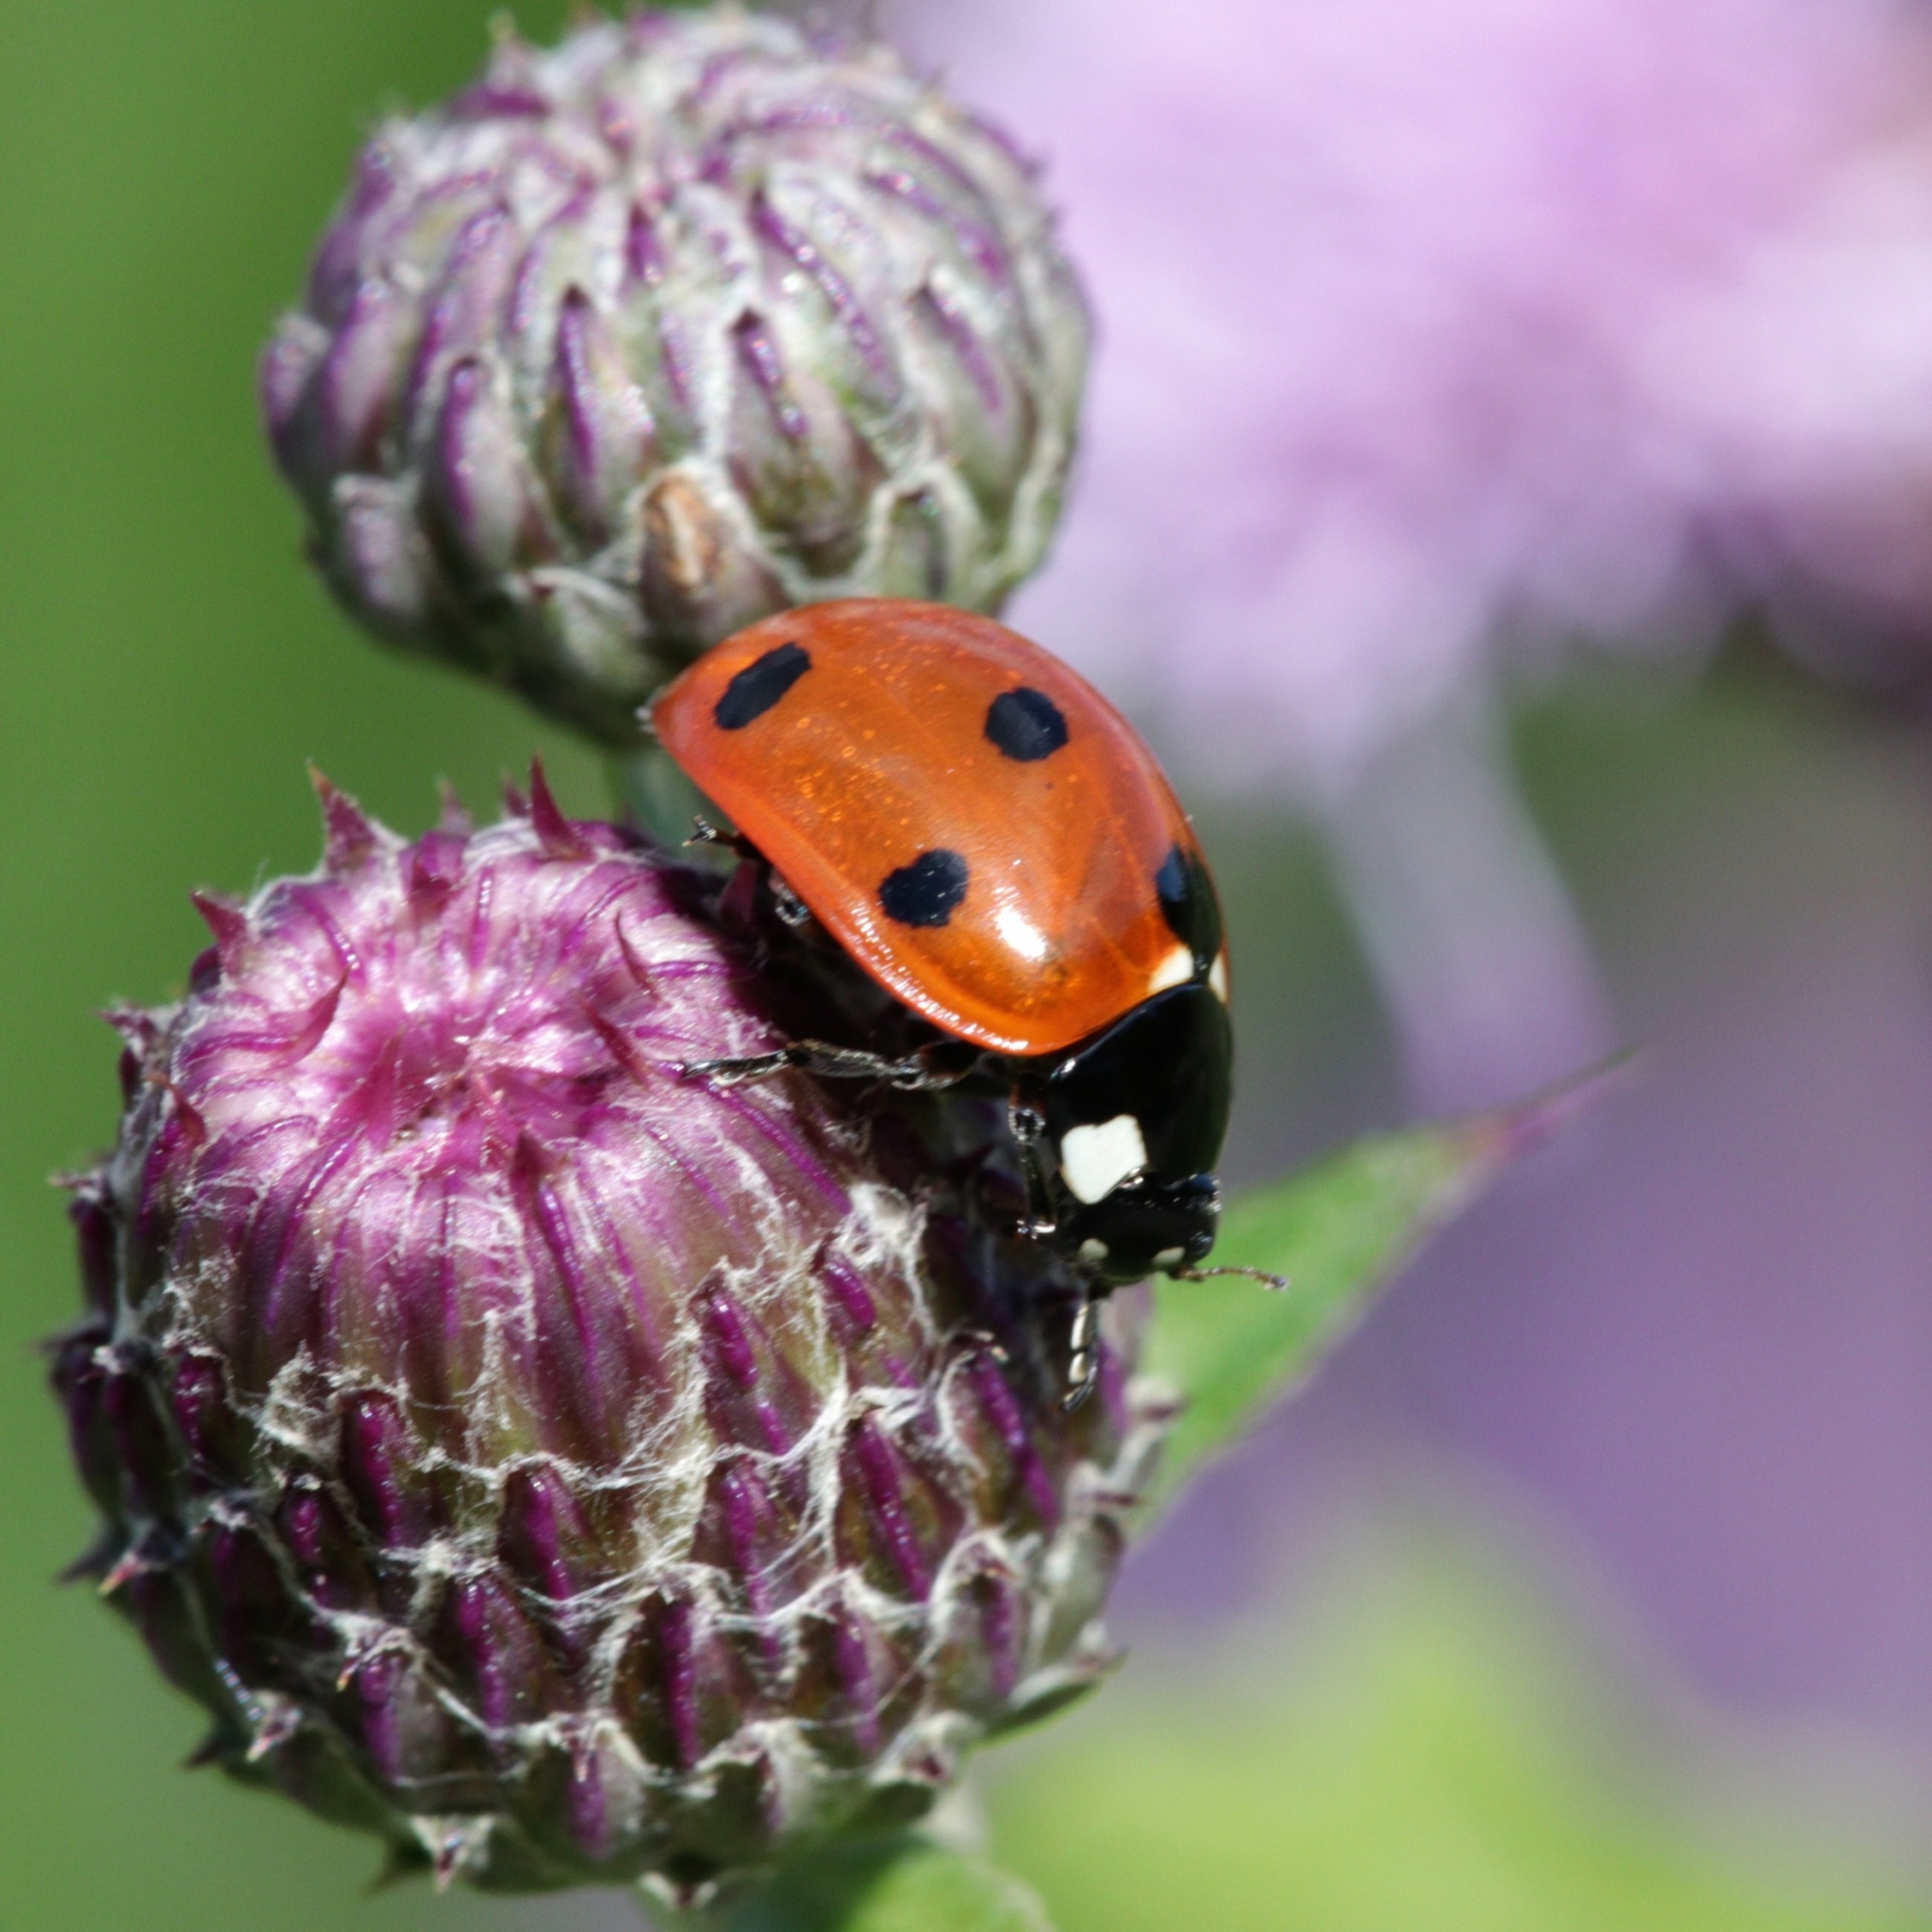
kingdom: Animalia
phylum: Arthropoda
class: Insecta
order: Coleoptera
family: Coccinellidae
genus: Coccinella
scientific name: Coccinella septempunctata
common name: Sevenspotted lady beetle
